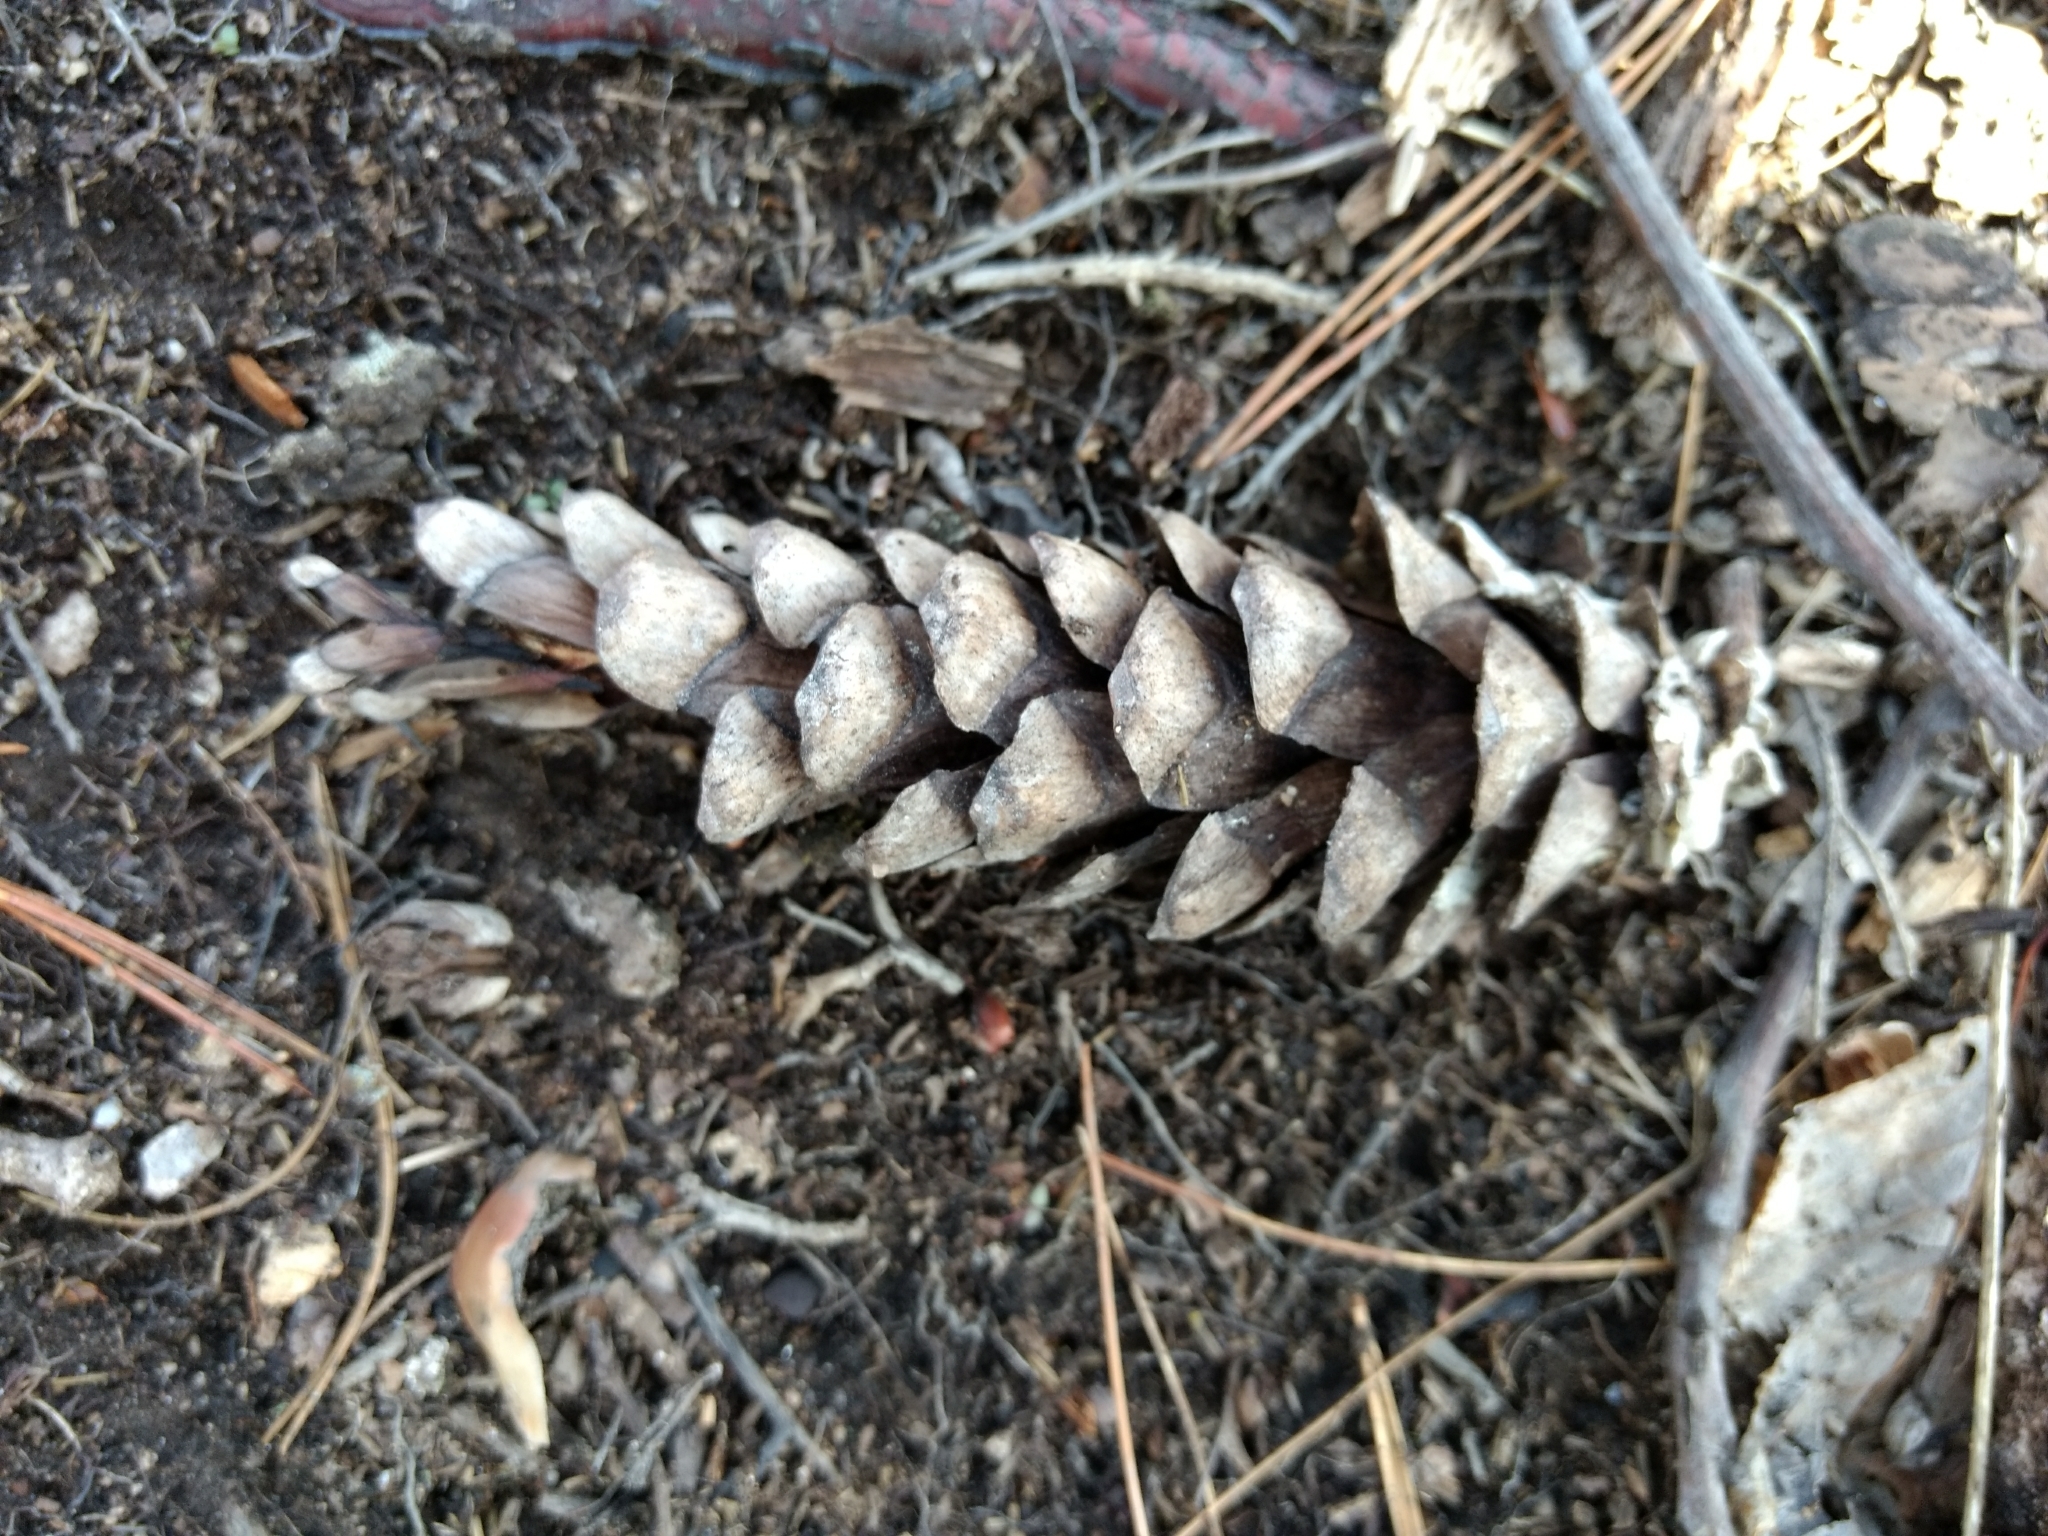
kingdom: Plantae
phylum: Tracheophyta
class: Pinopsida
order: Pinales
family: Pinaceae
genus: Pinus
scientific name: Pinus strobus
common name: Weymouth pine
